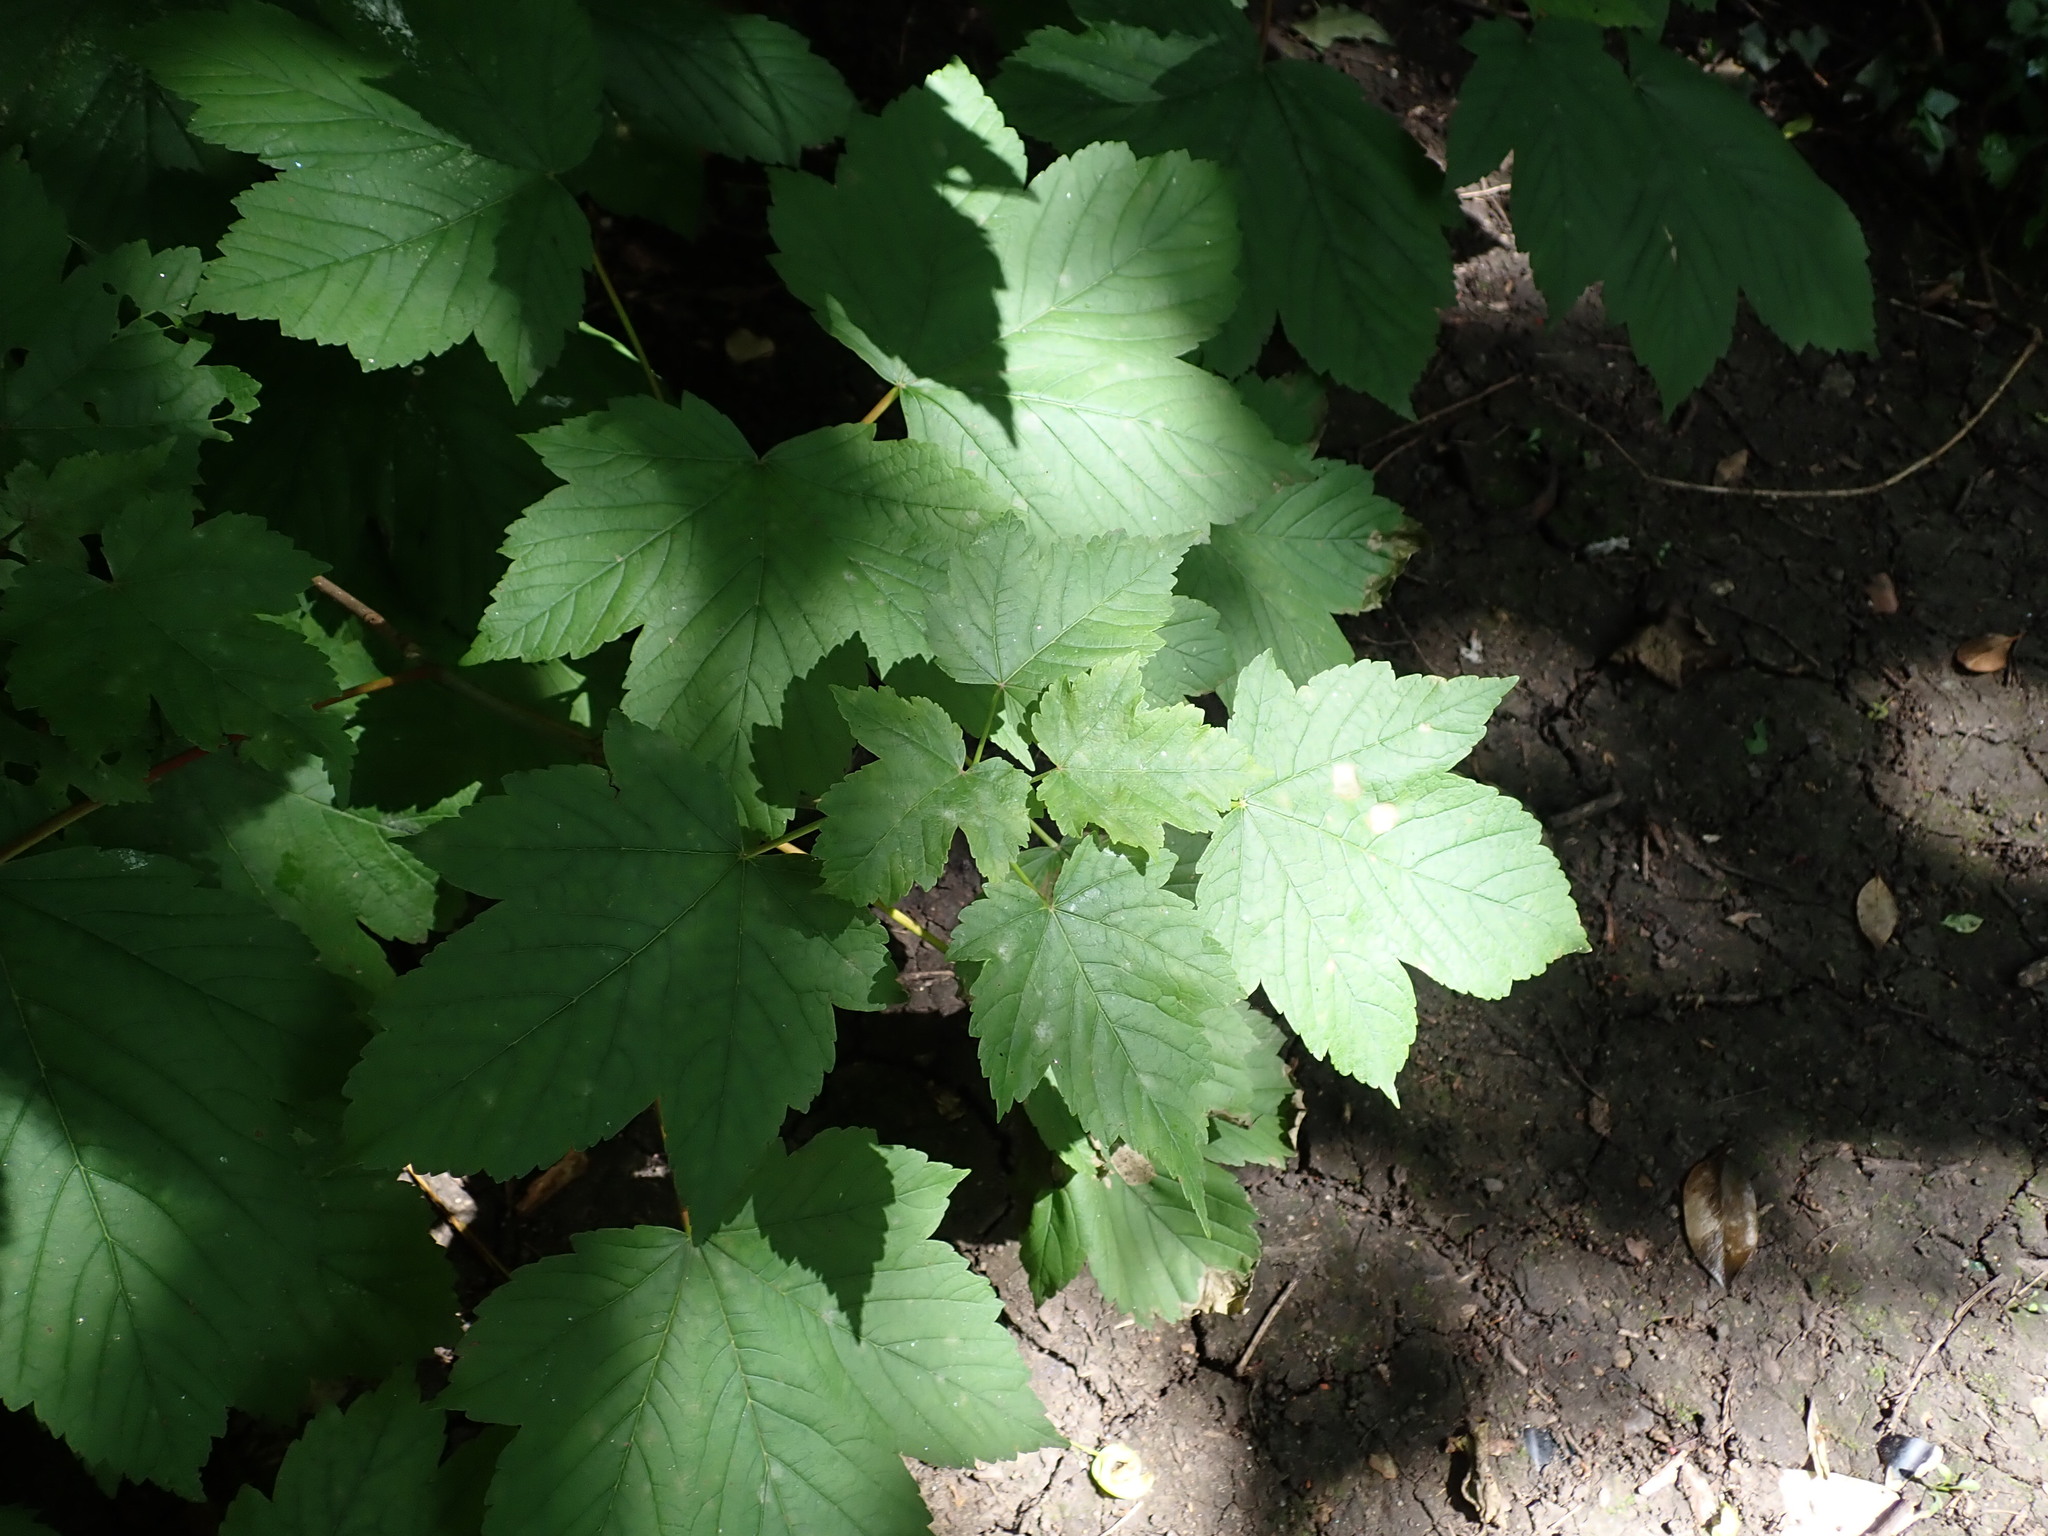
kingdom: Plantae
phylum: Tracheophyta
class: Magnoliopsida
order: Sapindales
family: Sapindaceae
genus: Acer
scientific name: Acer pseudoplatanus
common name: Sycamore
